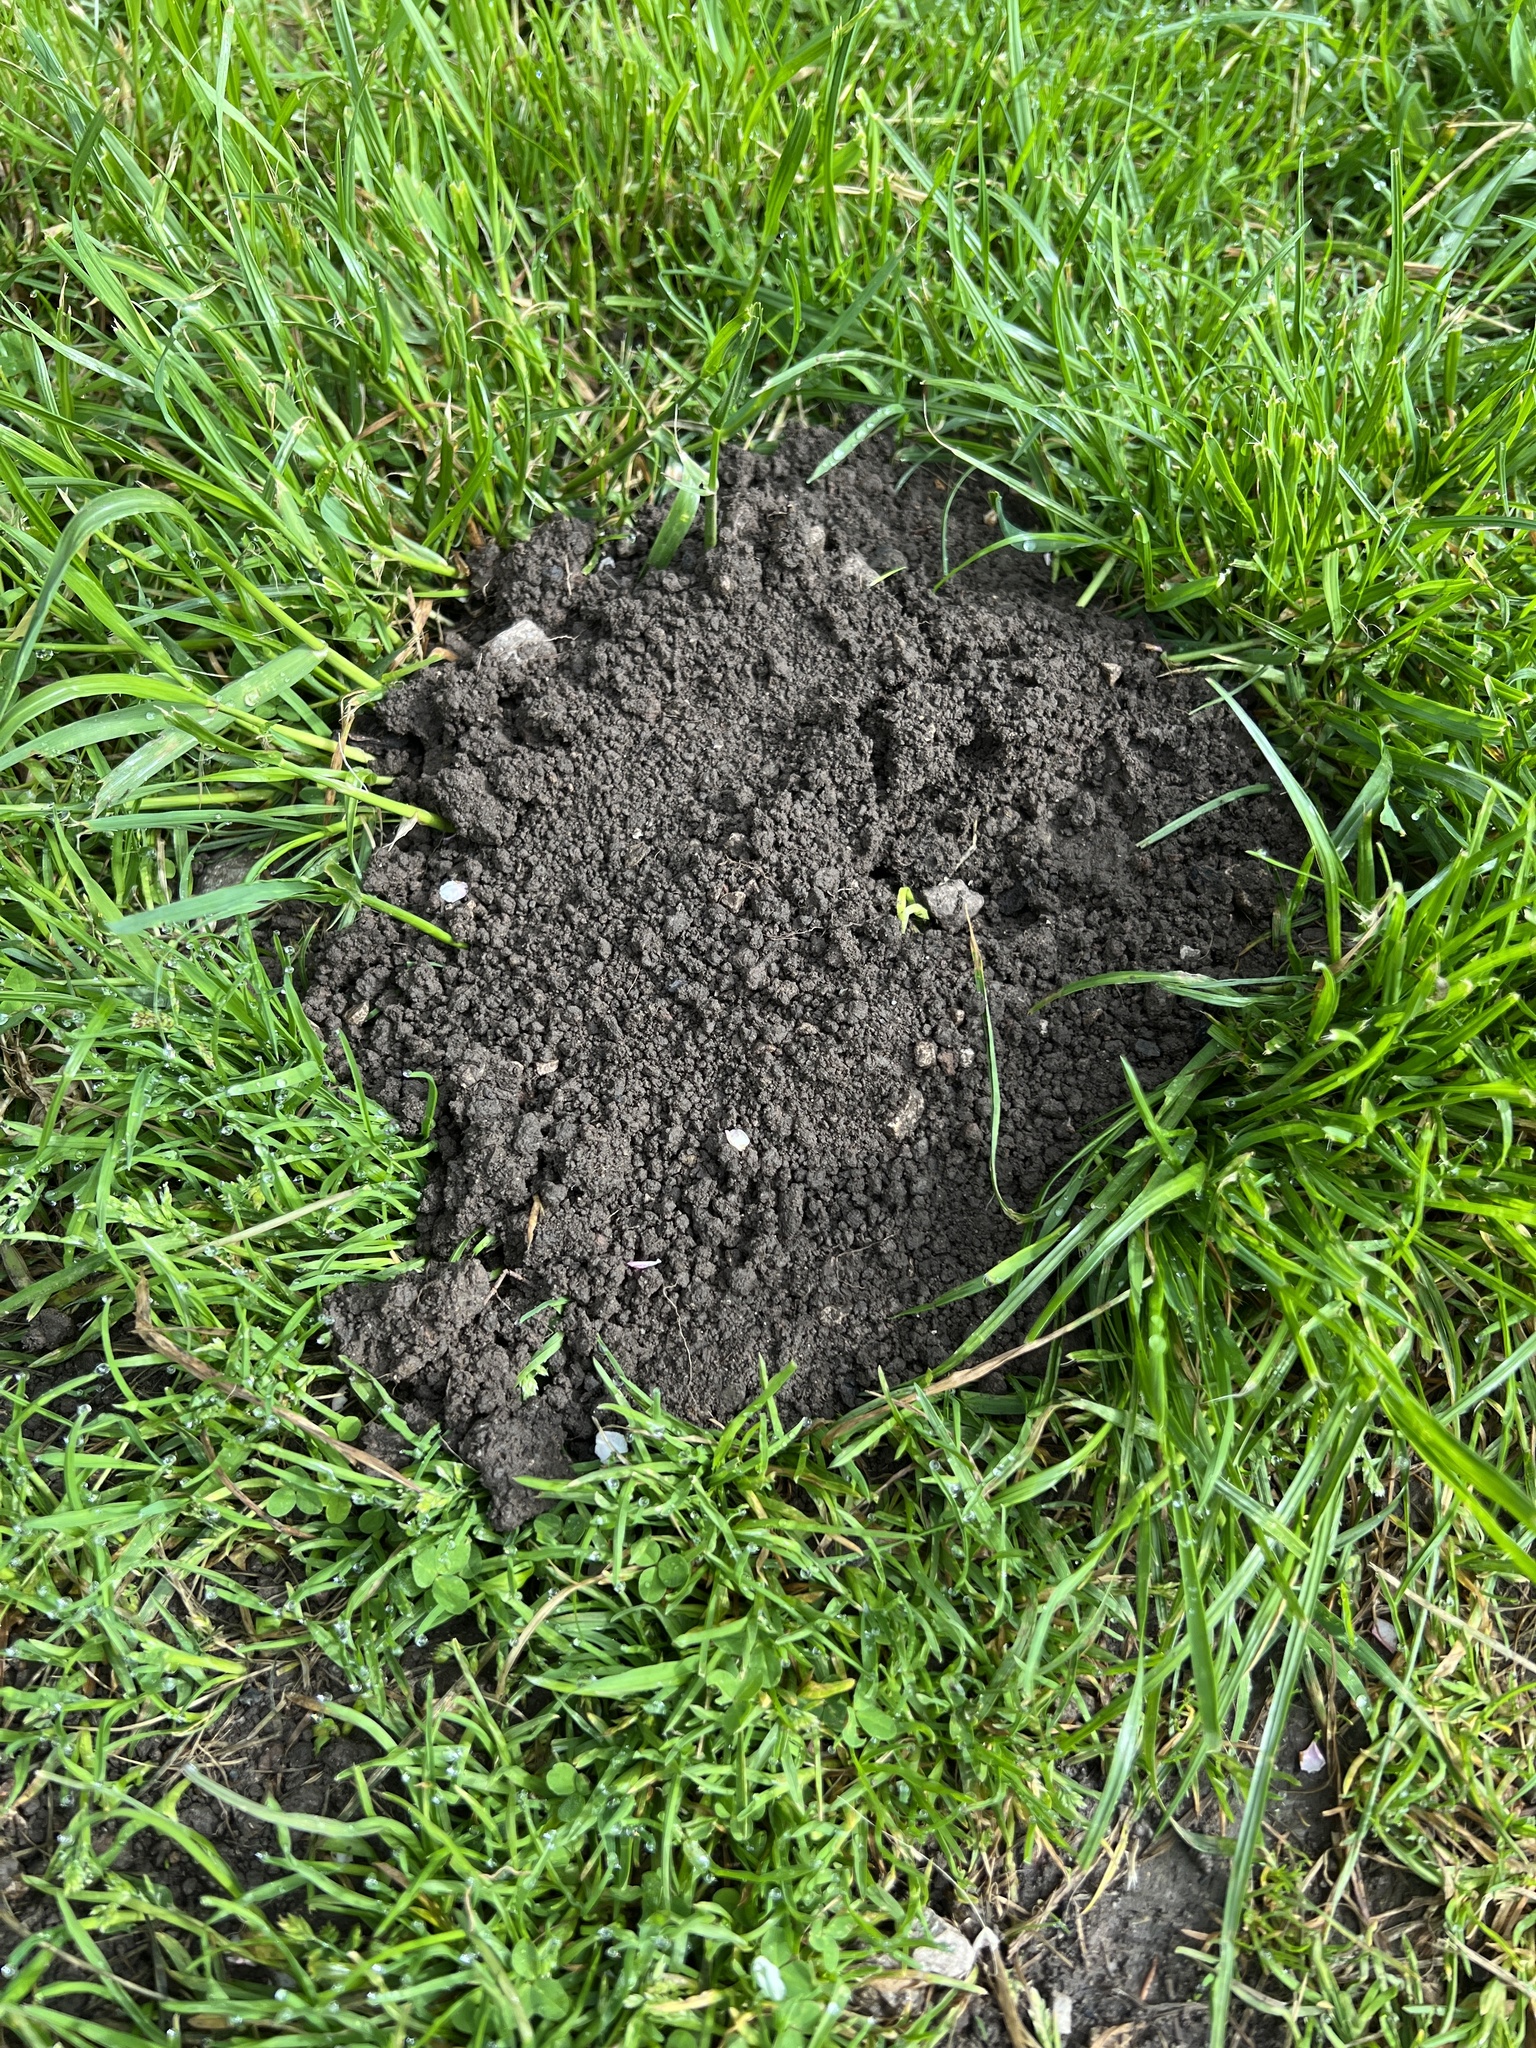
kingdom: Animalia
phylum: Chordata
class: Mammalia
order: Soricomorpha
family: Talpidae
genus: Talpa
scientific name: Talpa europaea
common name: European mole
